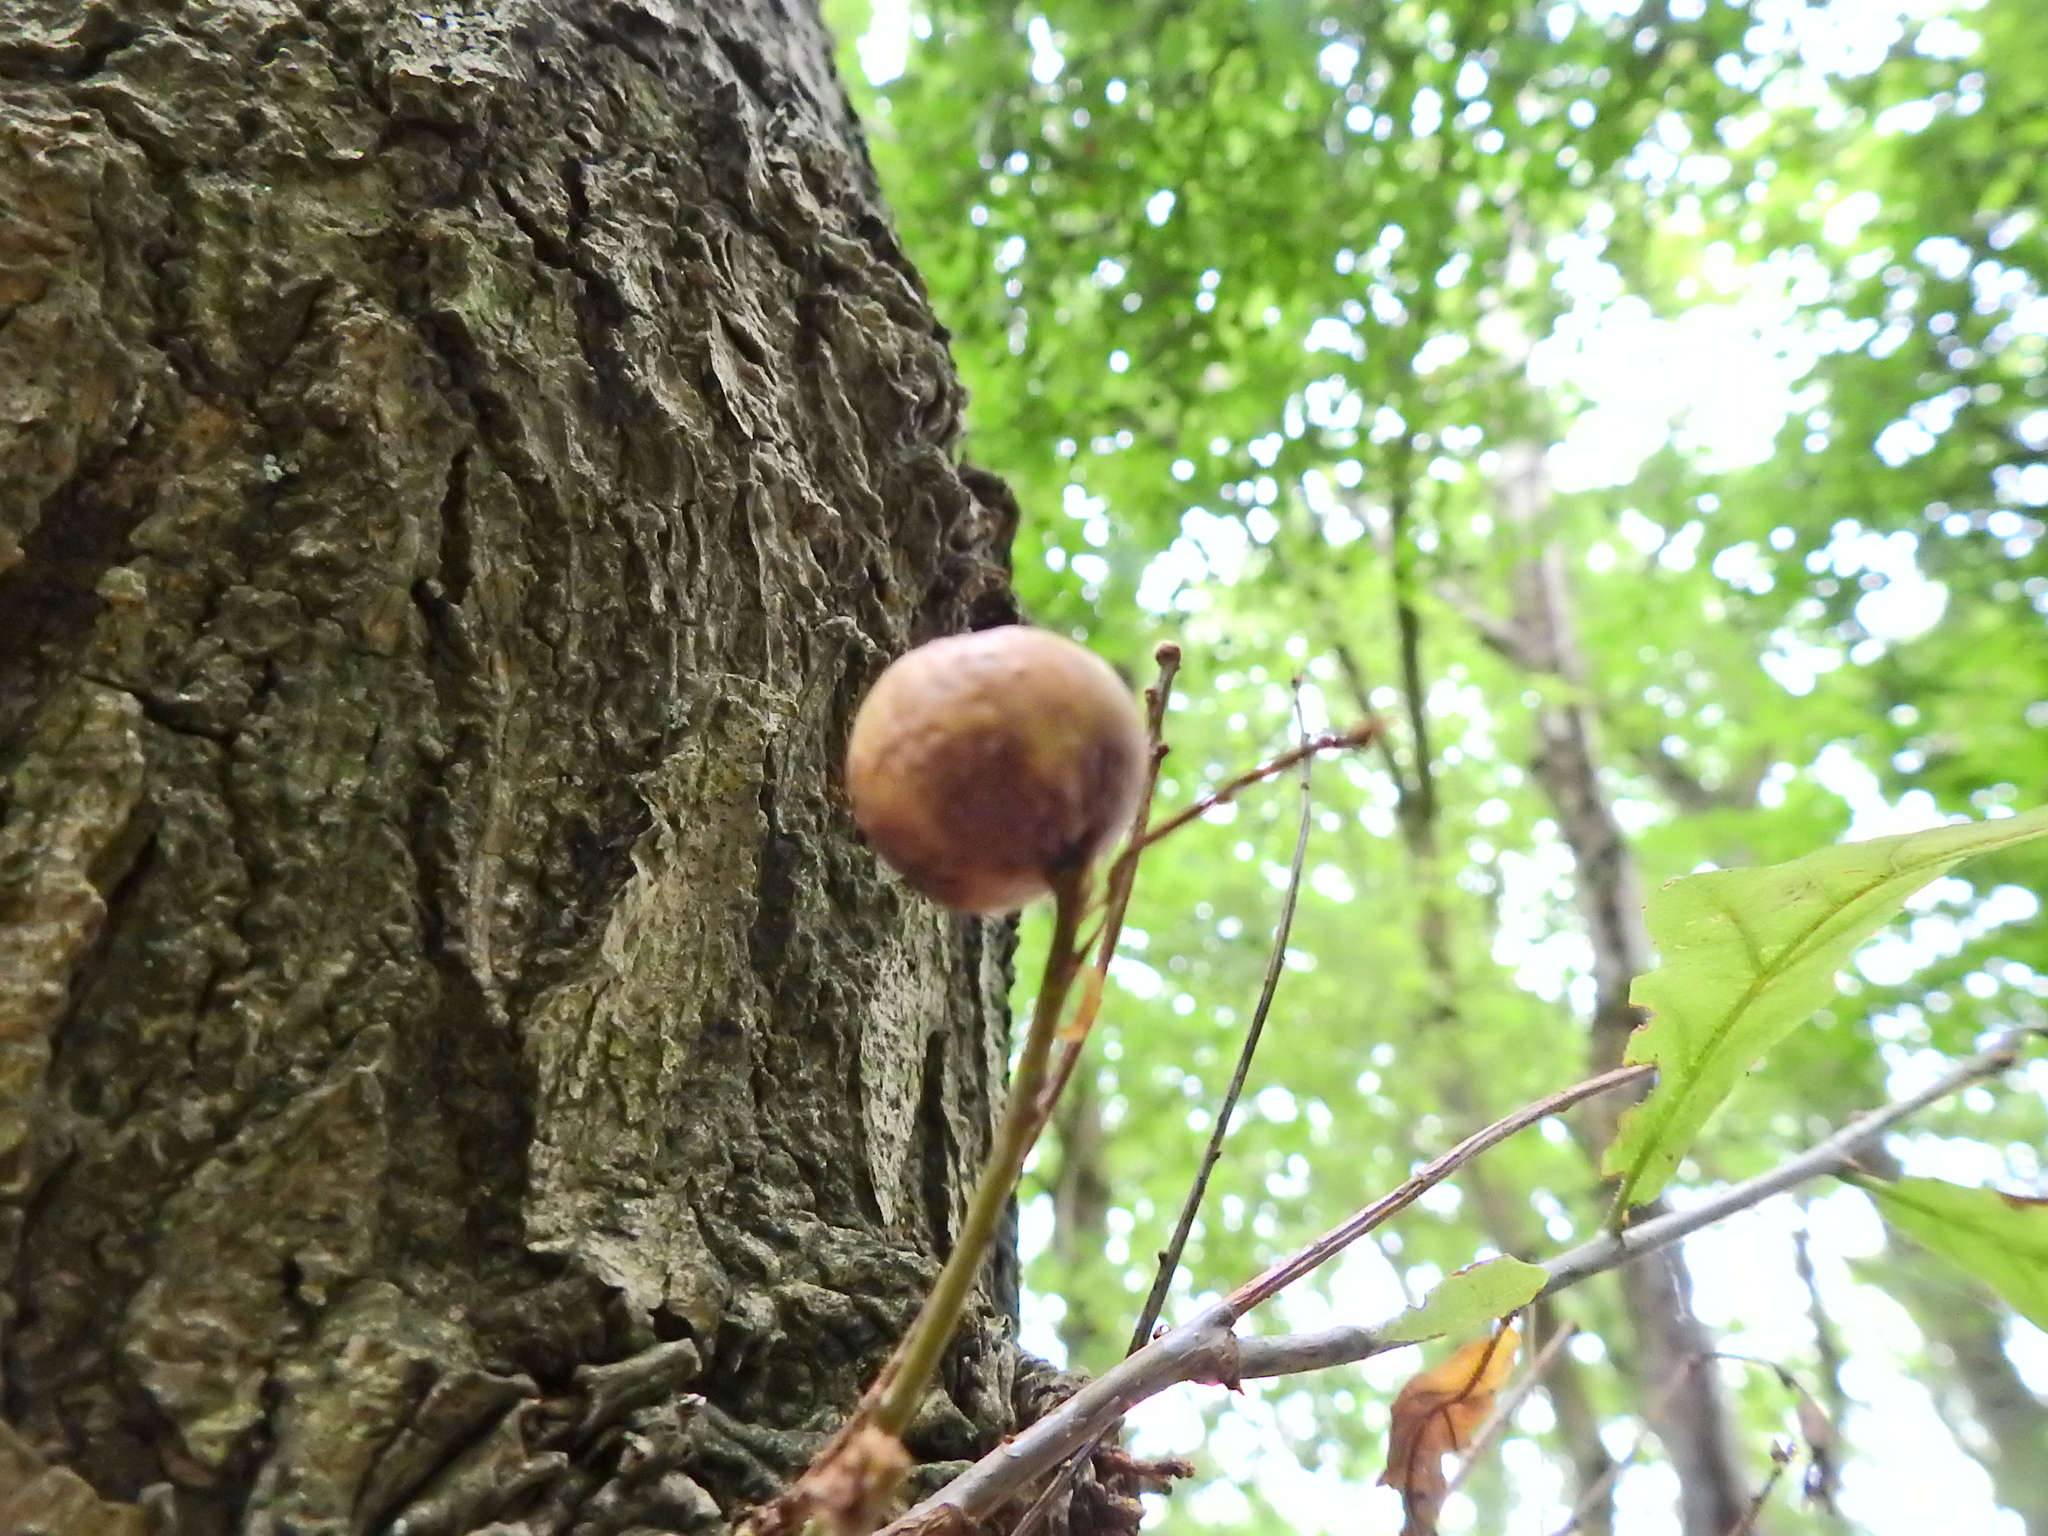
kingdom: Animalia
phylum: Arthropoda
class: Insecta
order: Hymenoptera
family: Cynipidae
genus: Andricus
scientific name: Andricus kollari
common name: Marble gall
